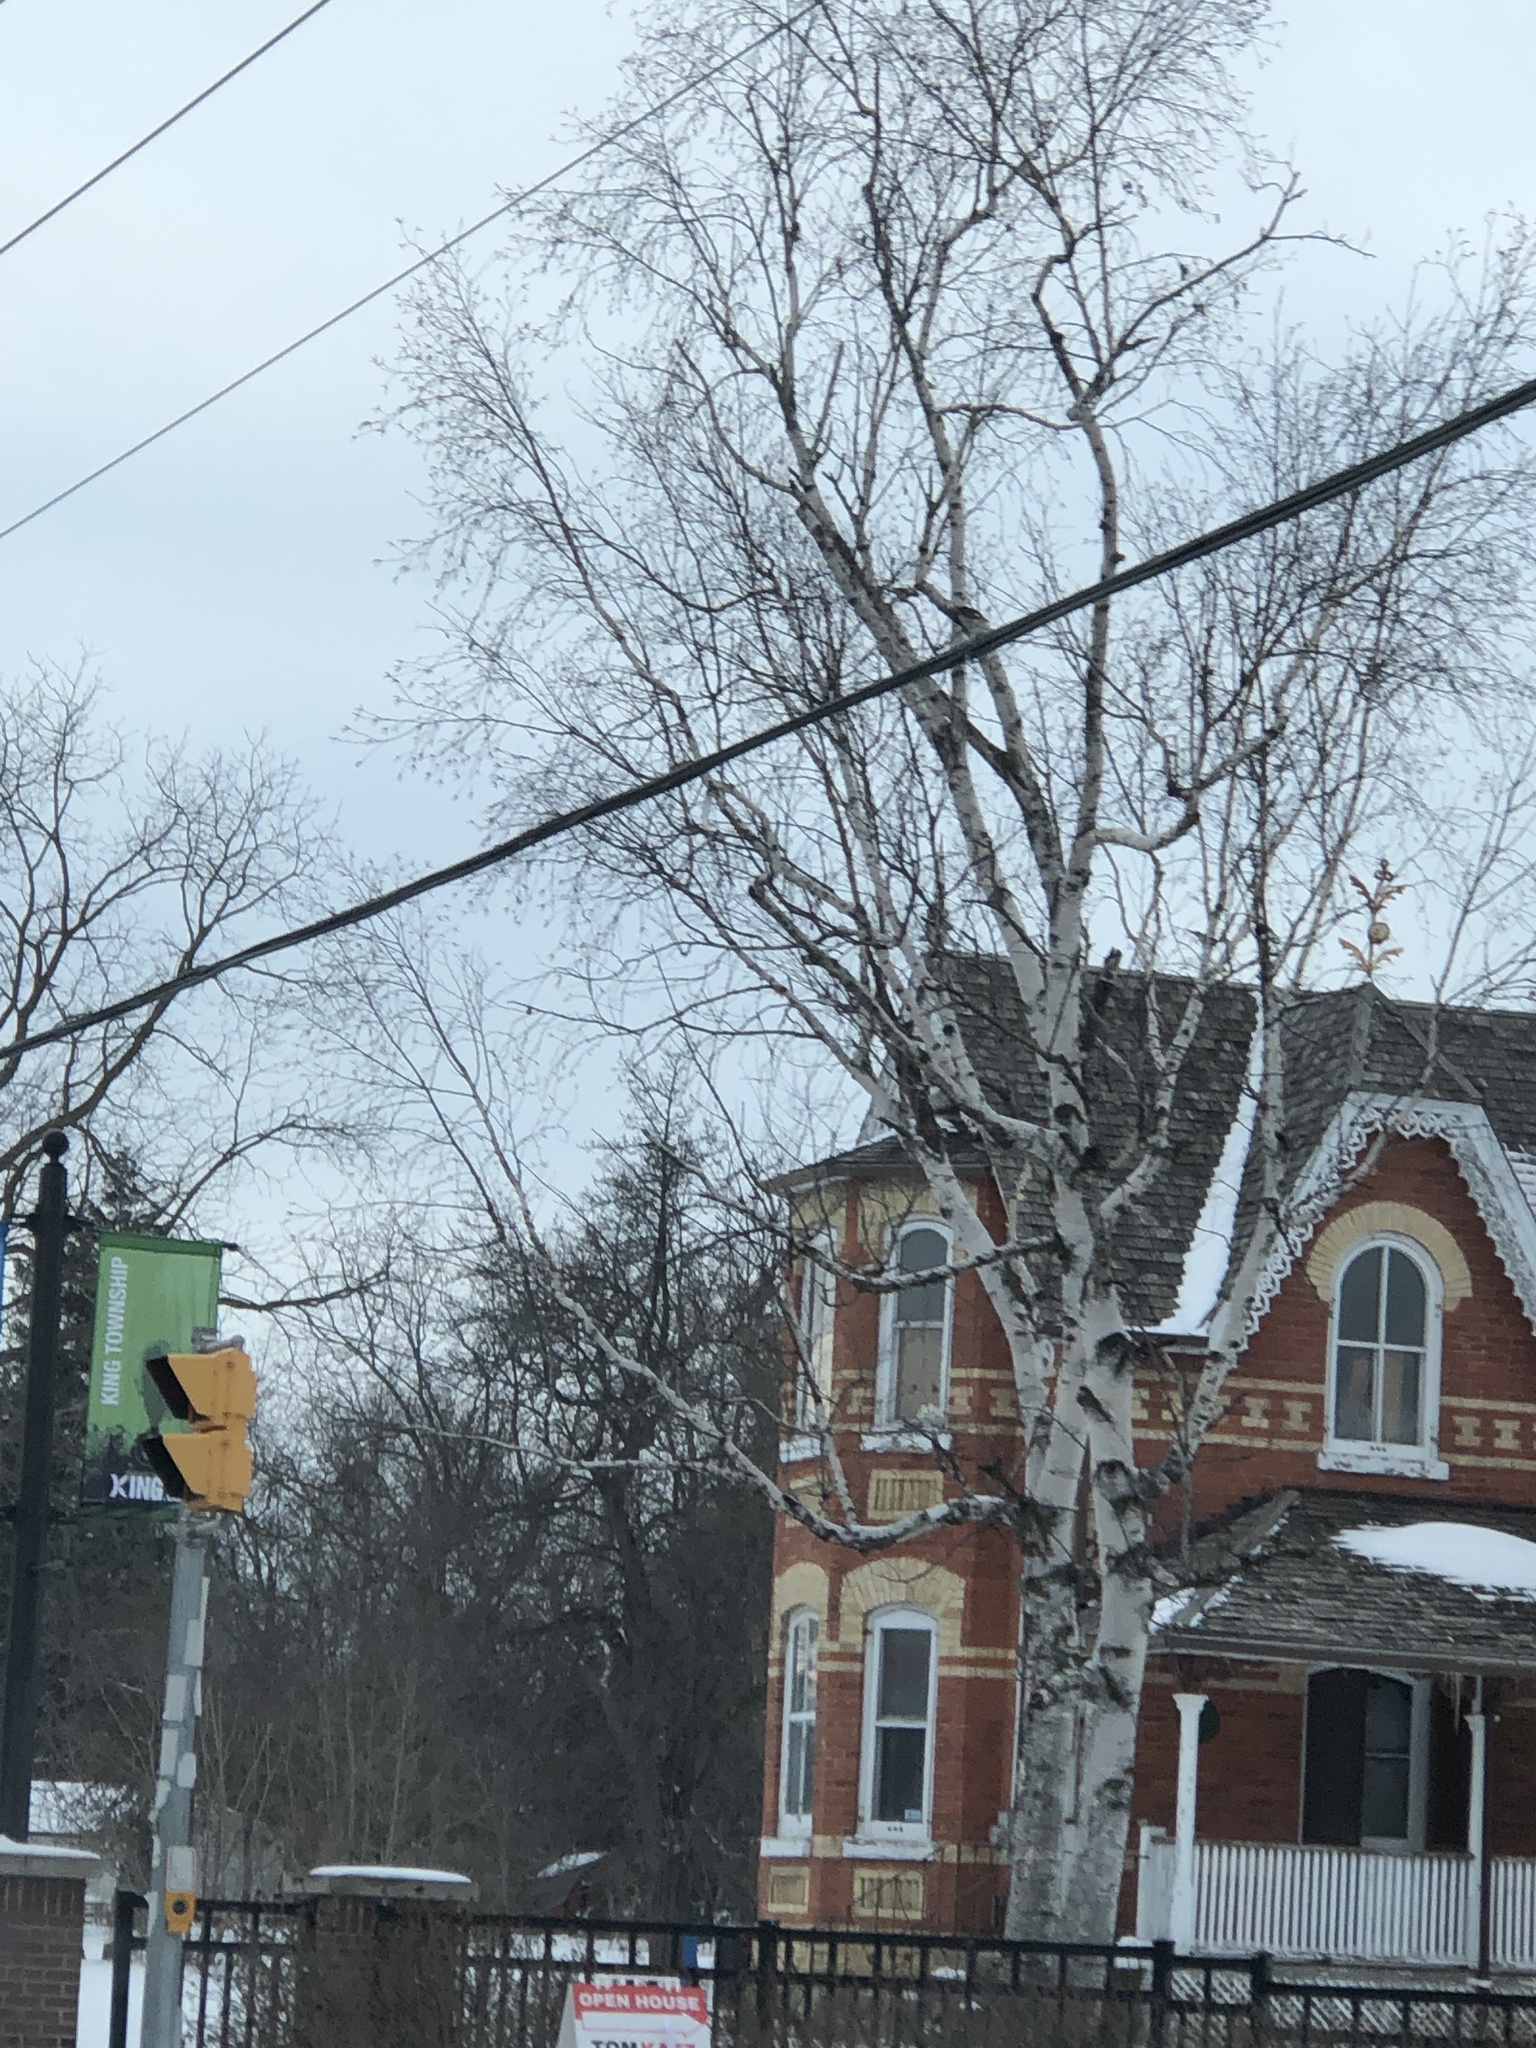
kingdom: Plantae
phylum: Tracheophyta
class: Magnoliopsida
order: Fagales
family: Betulaceae
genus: Betula
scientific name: Betula papyrifera
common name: Paper birch
